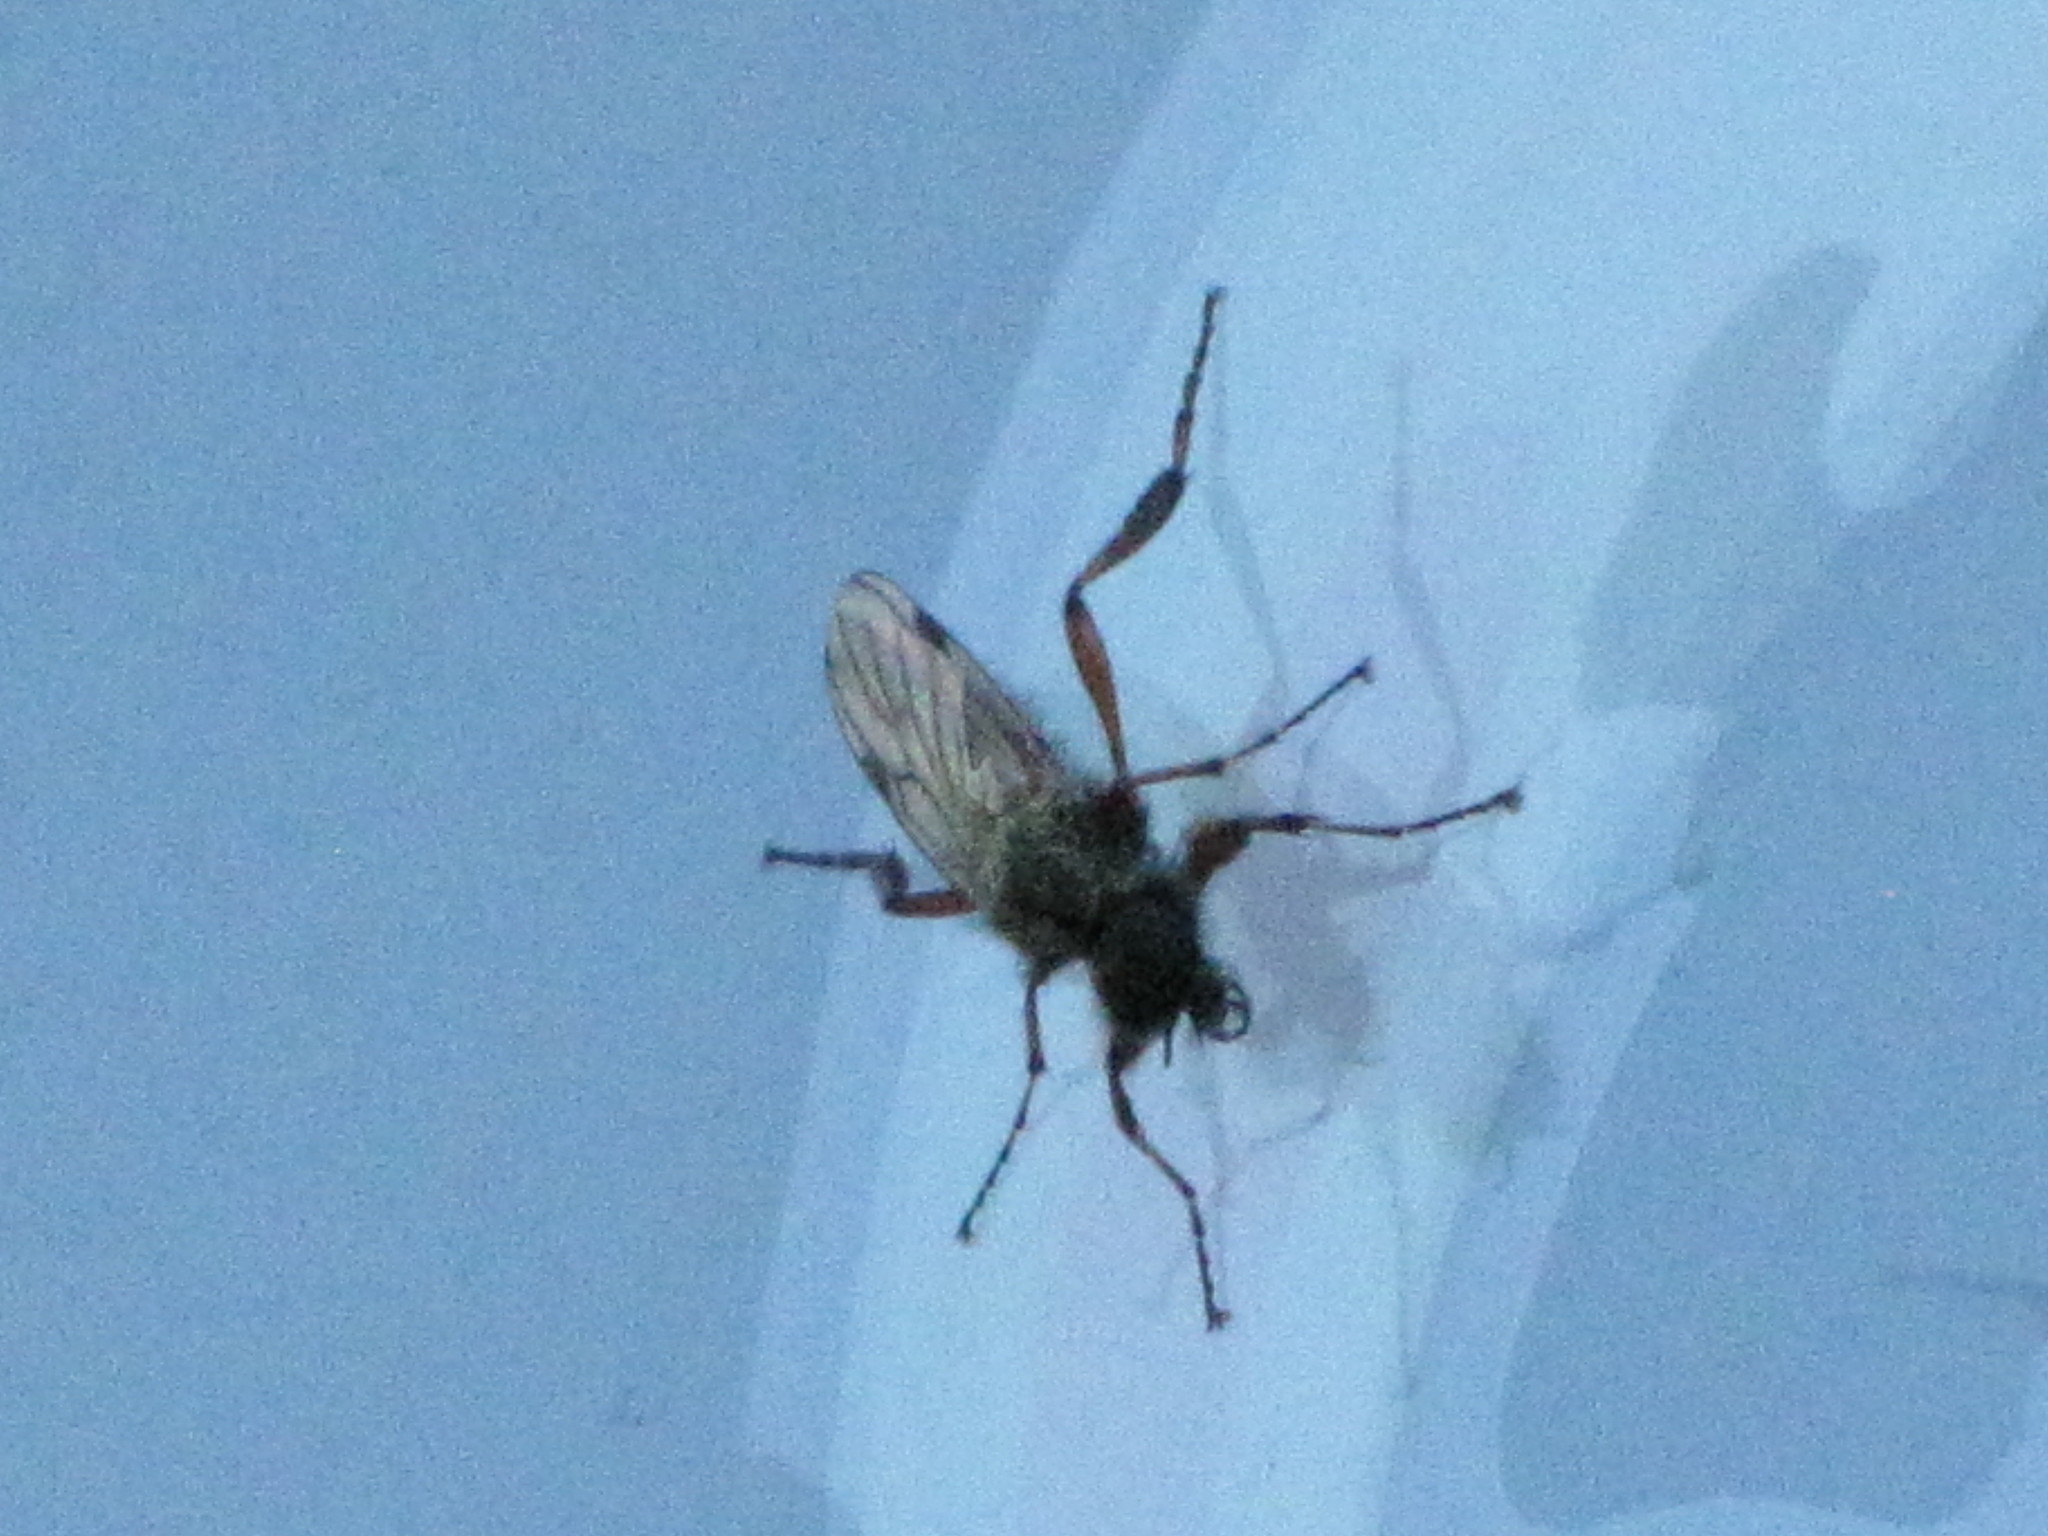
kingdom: Animalia
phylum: Arthropoda
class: Insecta
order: Diptera
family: Bibionidae
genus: Bibio
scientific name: Bibio
